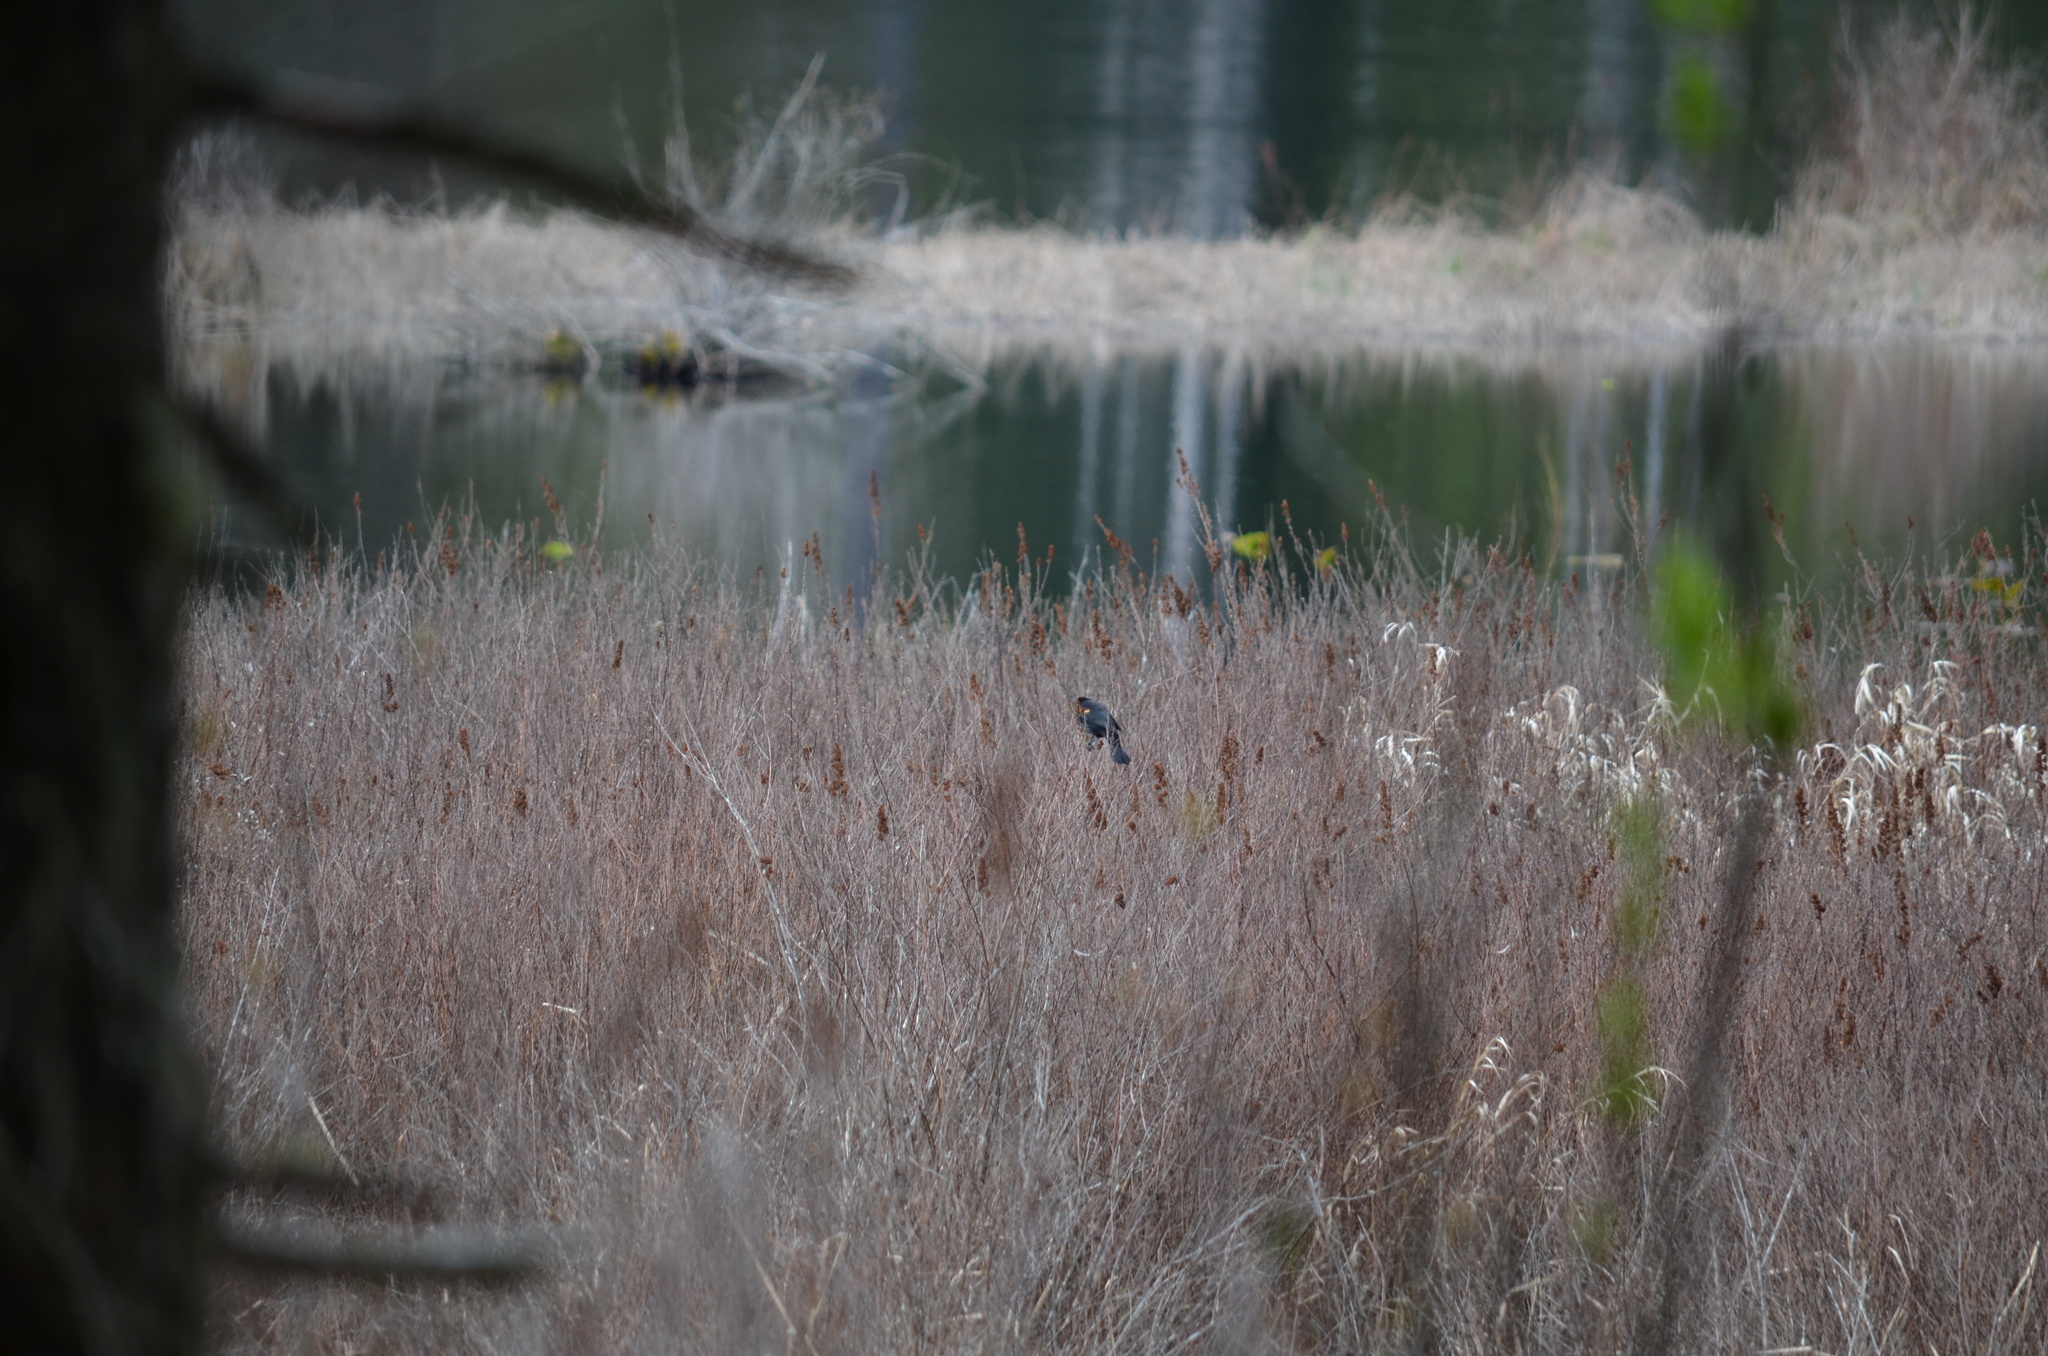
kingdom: Animalia
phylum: Chordata
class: Aves
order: Passeriformes
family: Icteridae
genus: Agelaius
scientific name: Agelaius phoeniceus
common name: Red-winged blackbird
